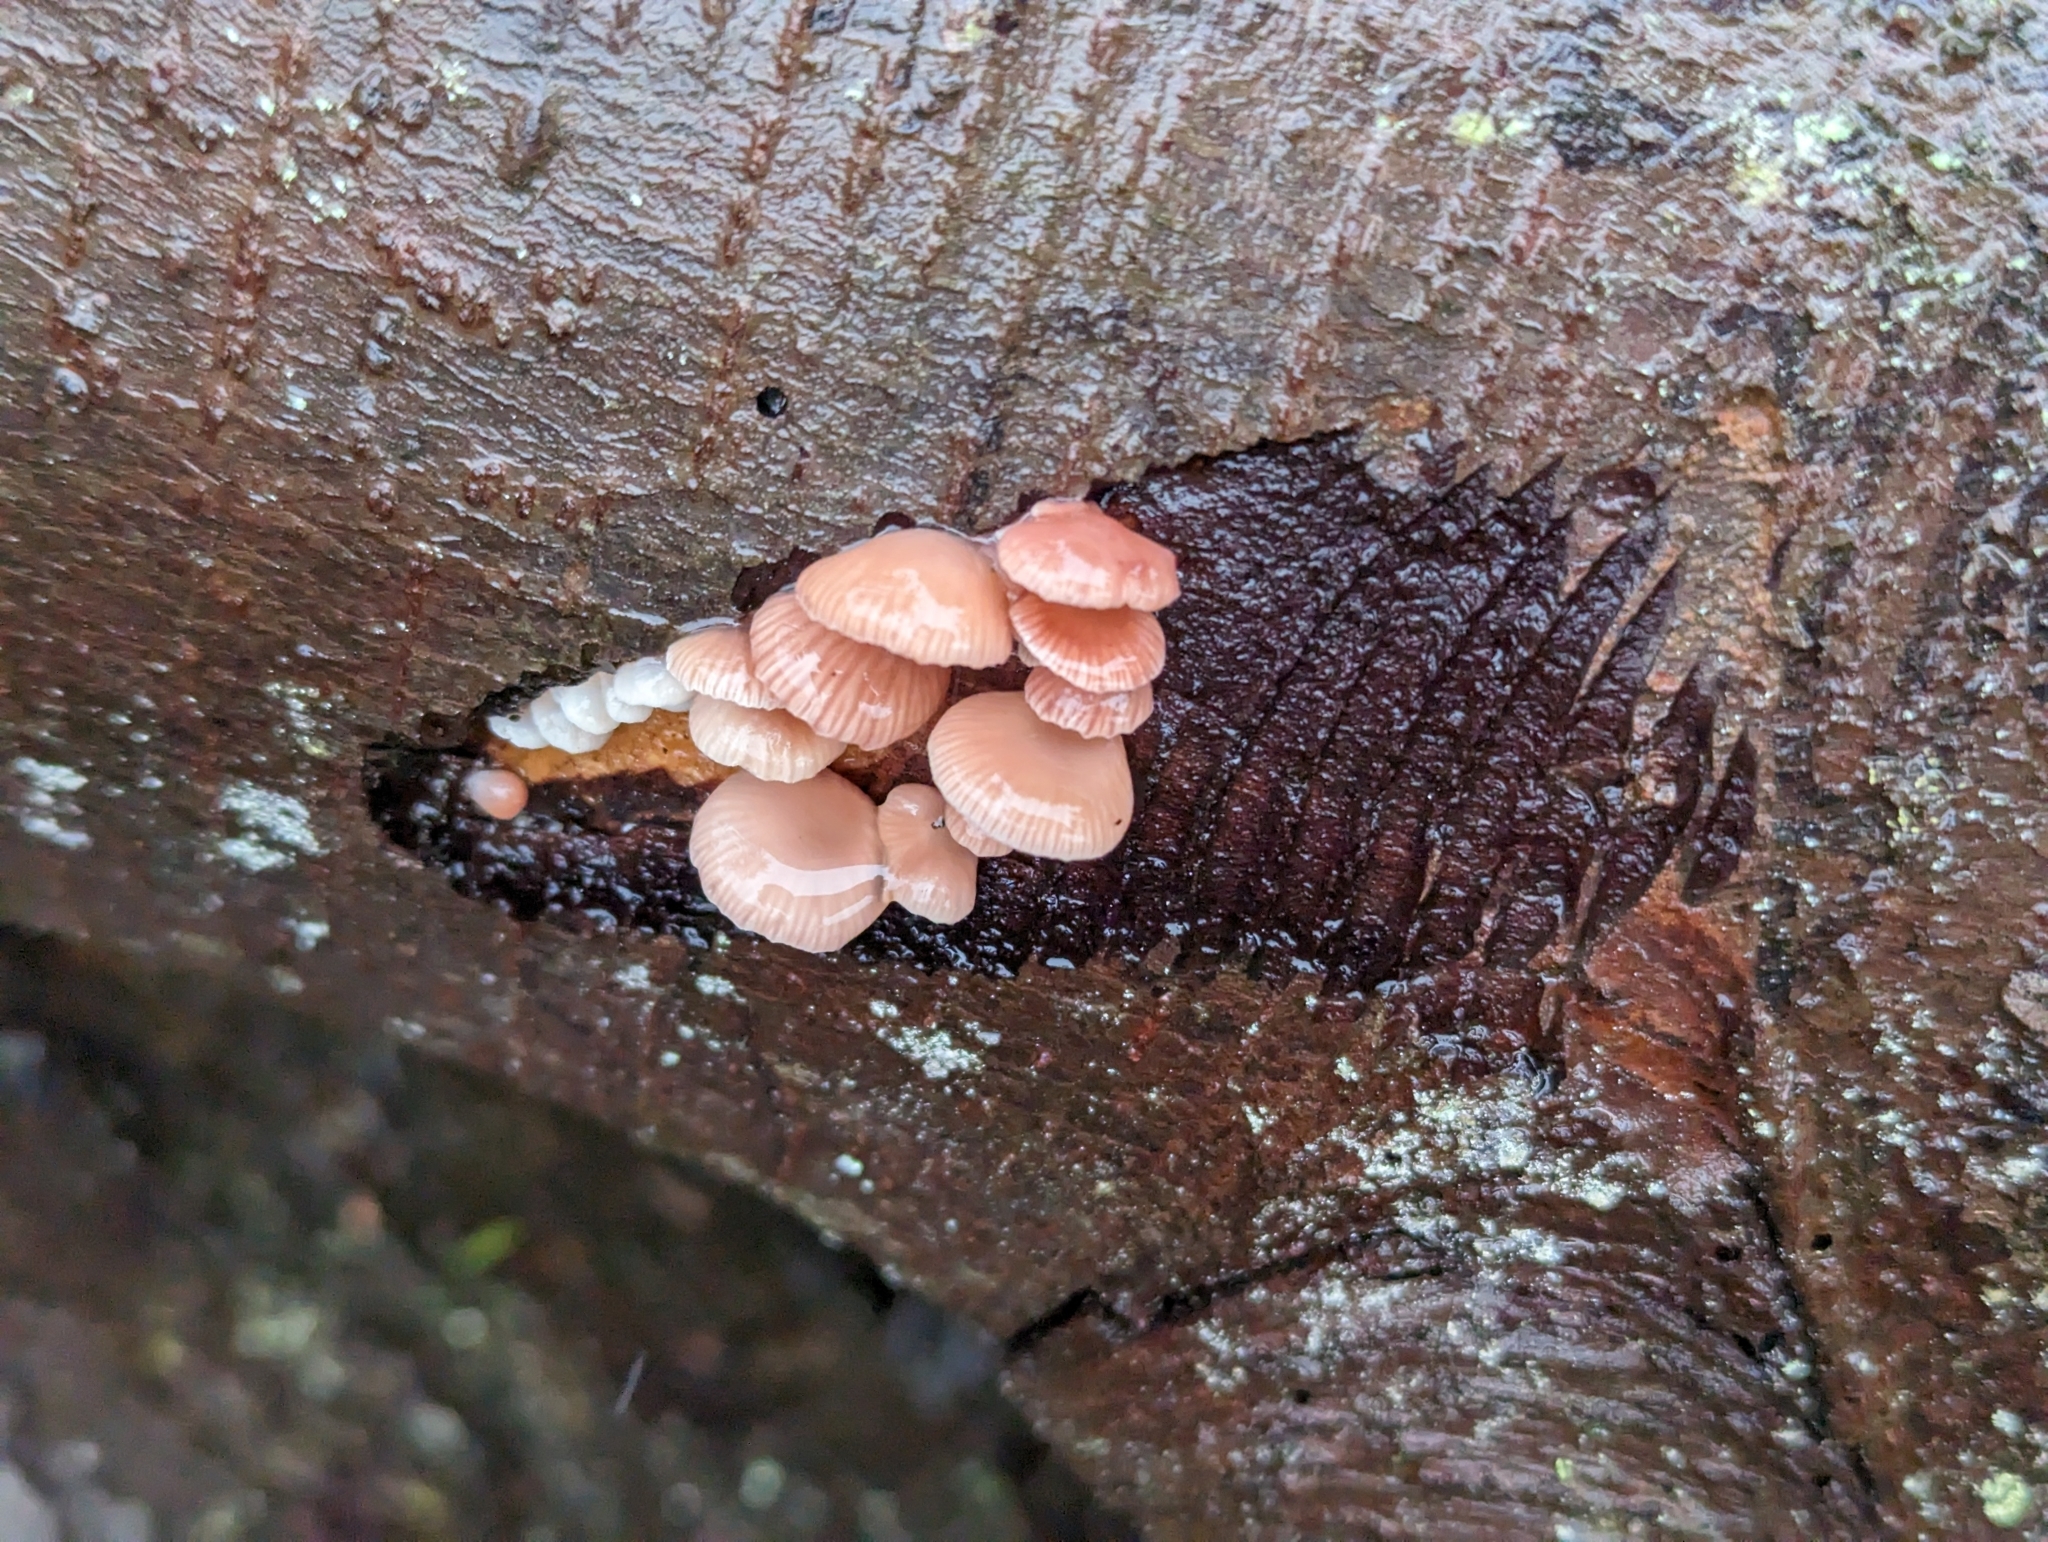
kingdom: Fungi
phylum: Basidiomycota
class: Agaricomycetes
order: Agaricales
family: Mycenaceae
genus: Panellus
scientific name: Panellus longinquus
